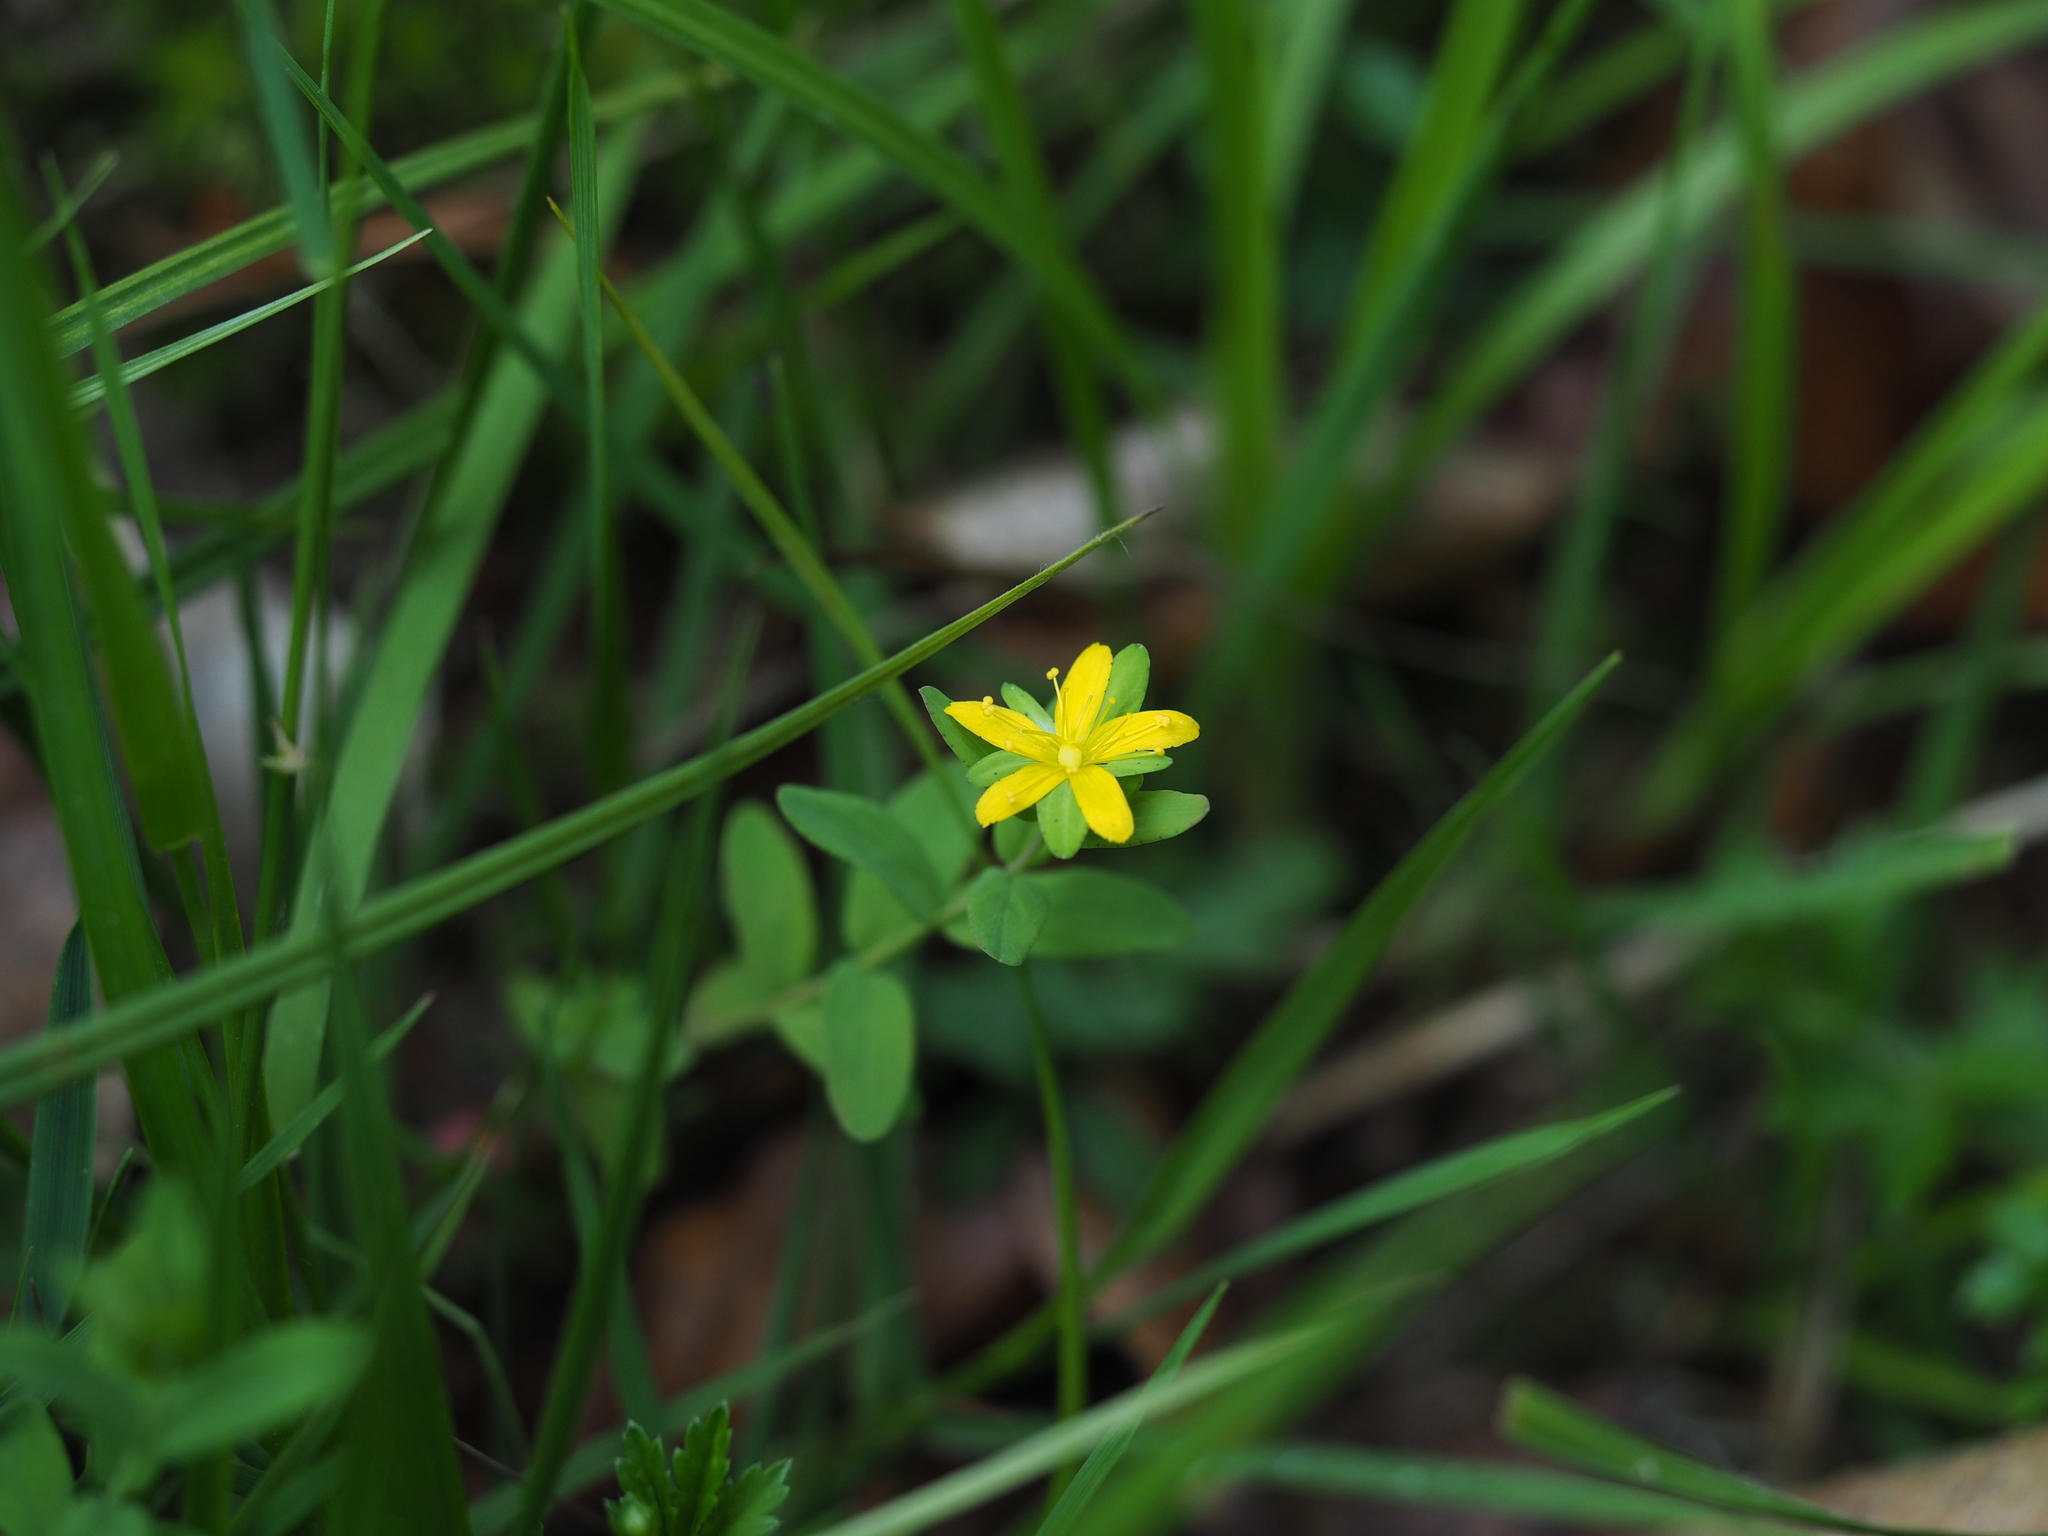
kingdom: Plantae
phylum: Tracheophyta
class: Magnoliopsida
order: Malpighiales
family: Hypericaceae
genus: Hypericum
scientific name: Hypericum humifusum
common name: Trailing st. john's-wort
